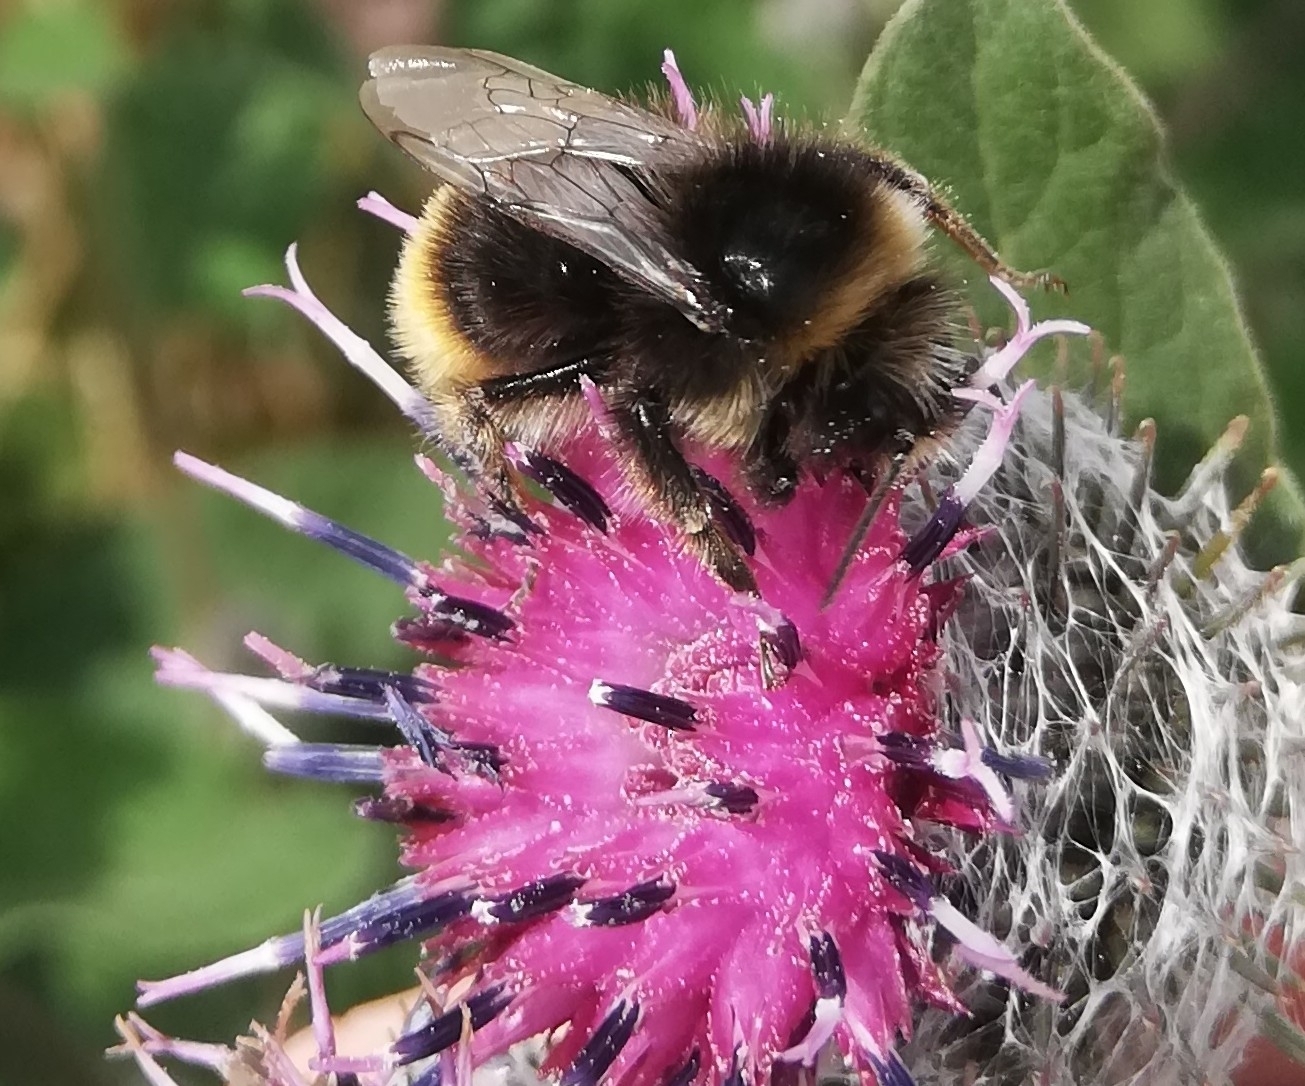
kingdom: Animalia
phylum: Arthropoda
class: Insecta
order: Hymenoptera
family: Apidae
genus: Bombus
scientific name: Bombus lapidarius
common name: Large red-tailed humble-bee
